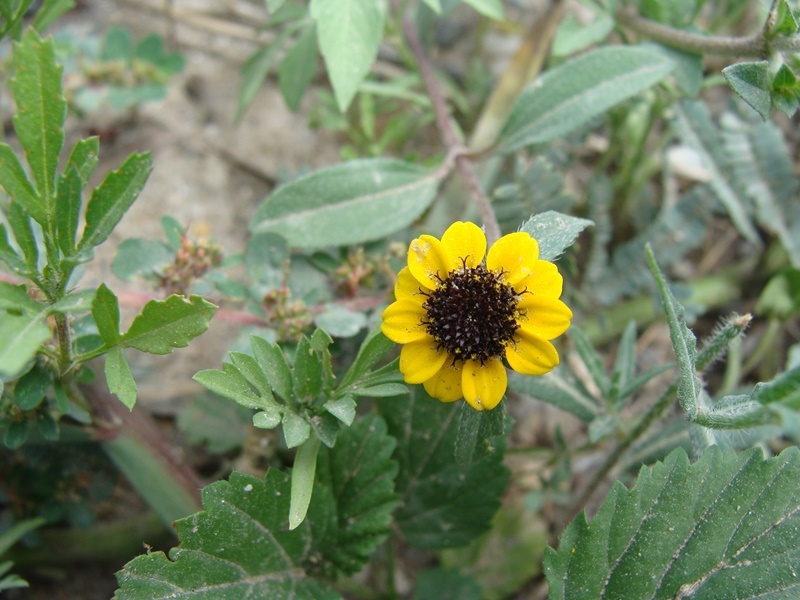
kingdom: Plantae
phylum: Tracheophyta
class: Magnoliopsida
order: Asterales
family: Asteraceae
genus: Sanvitalia
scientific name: Sanvitalia procumbens
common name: Mexican creeping zinnia
